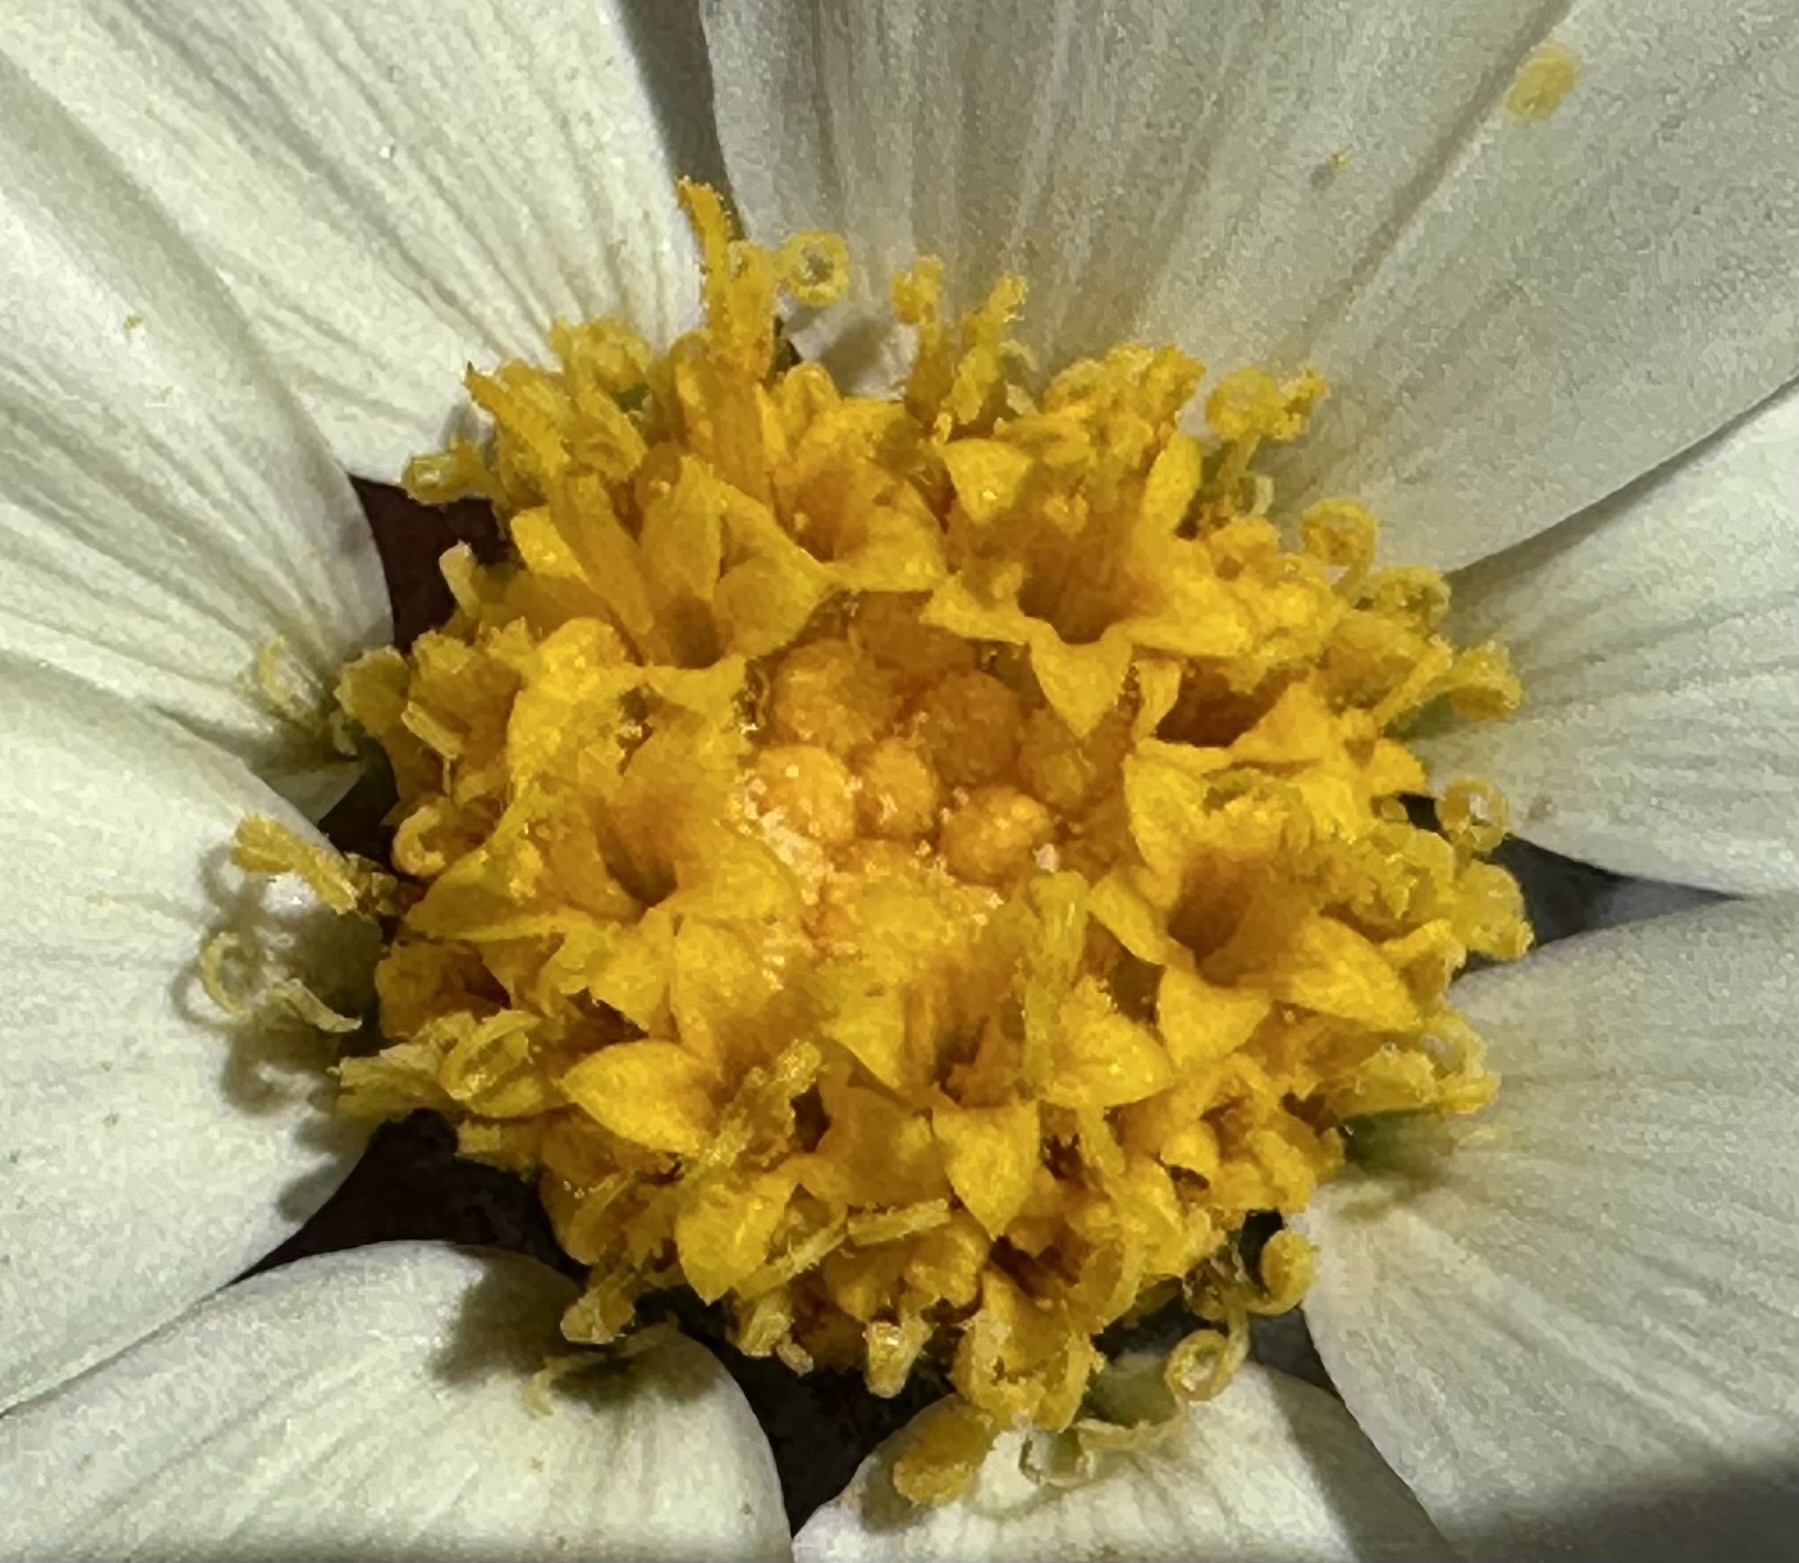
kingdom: Plantae
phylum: Tracheophyta
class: Magnoliopsida
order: Asterales
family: Asteraceae
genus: Layia
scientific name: Layia glandulosa
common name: White layia
